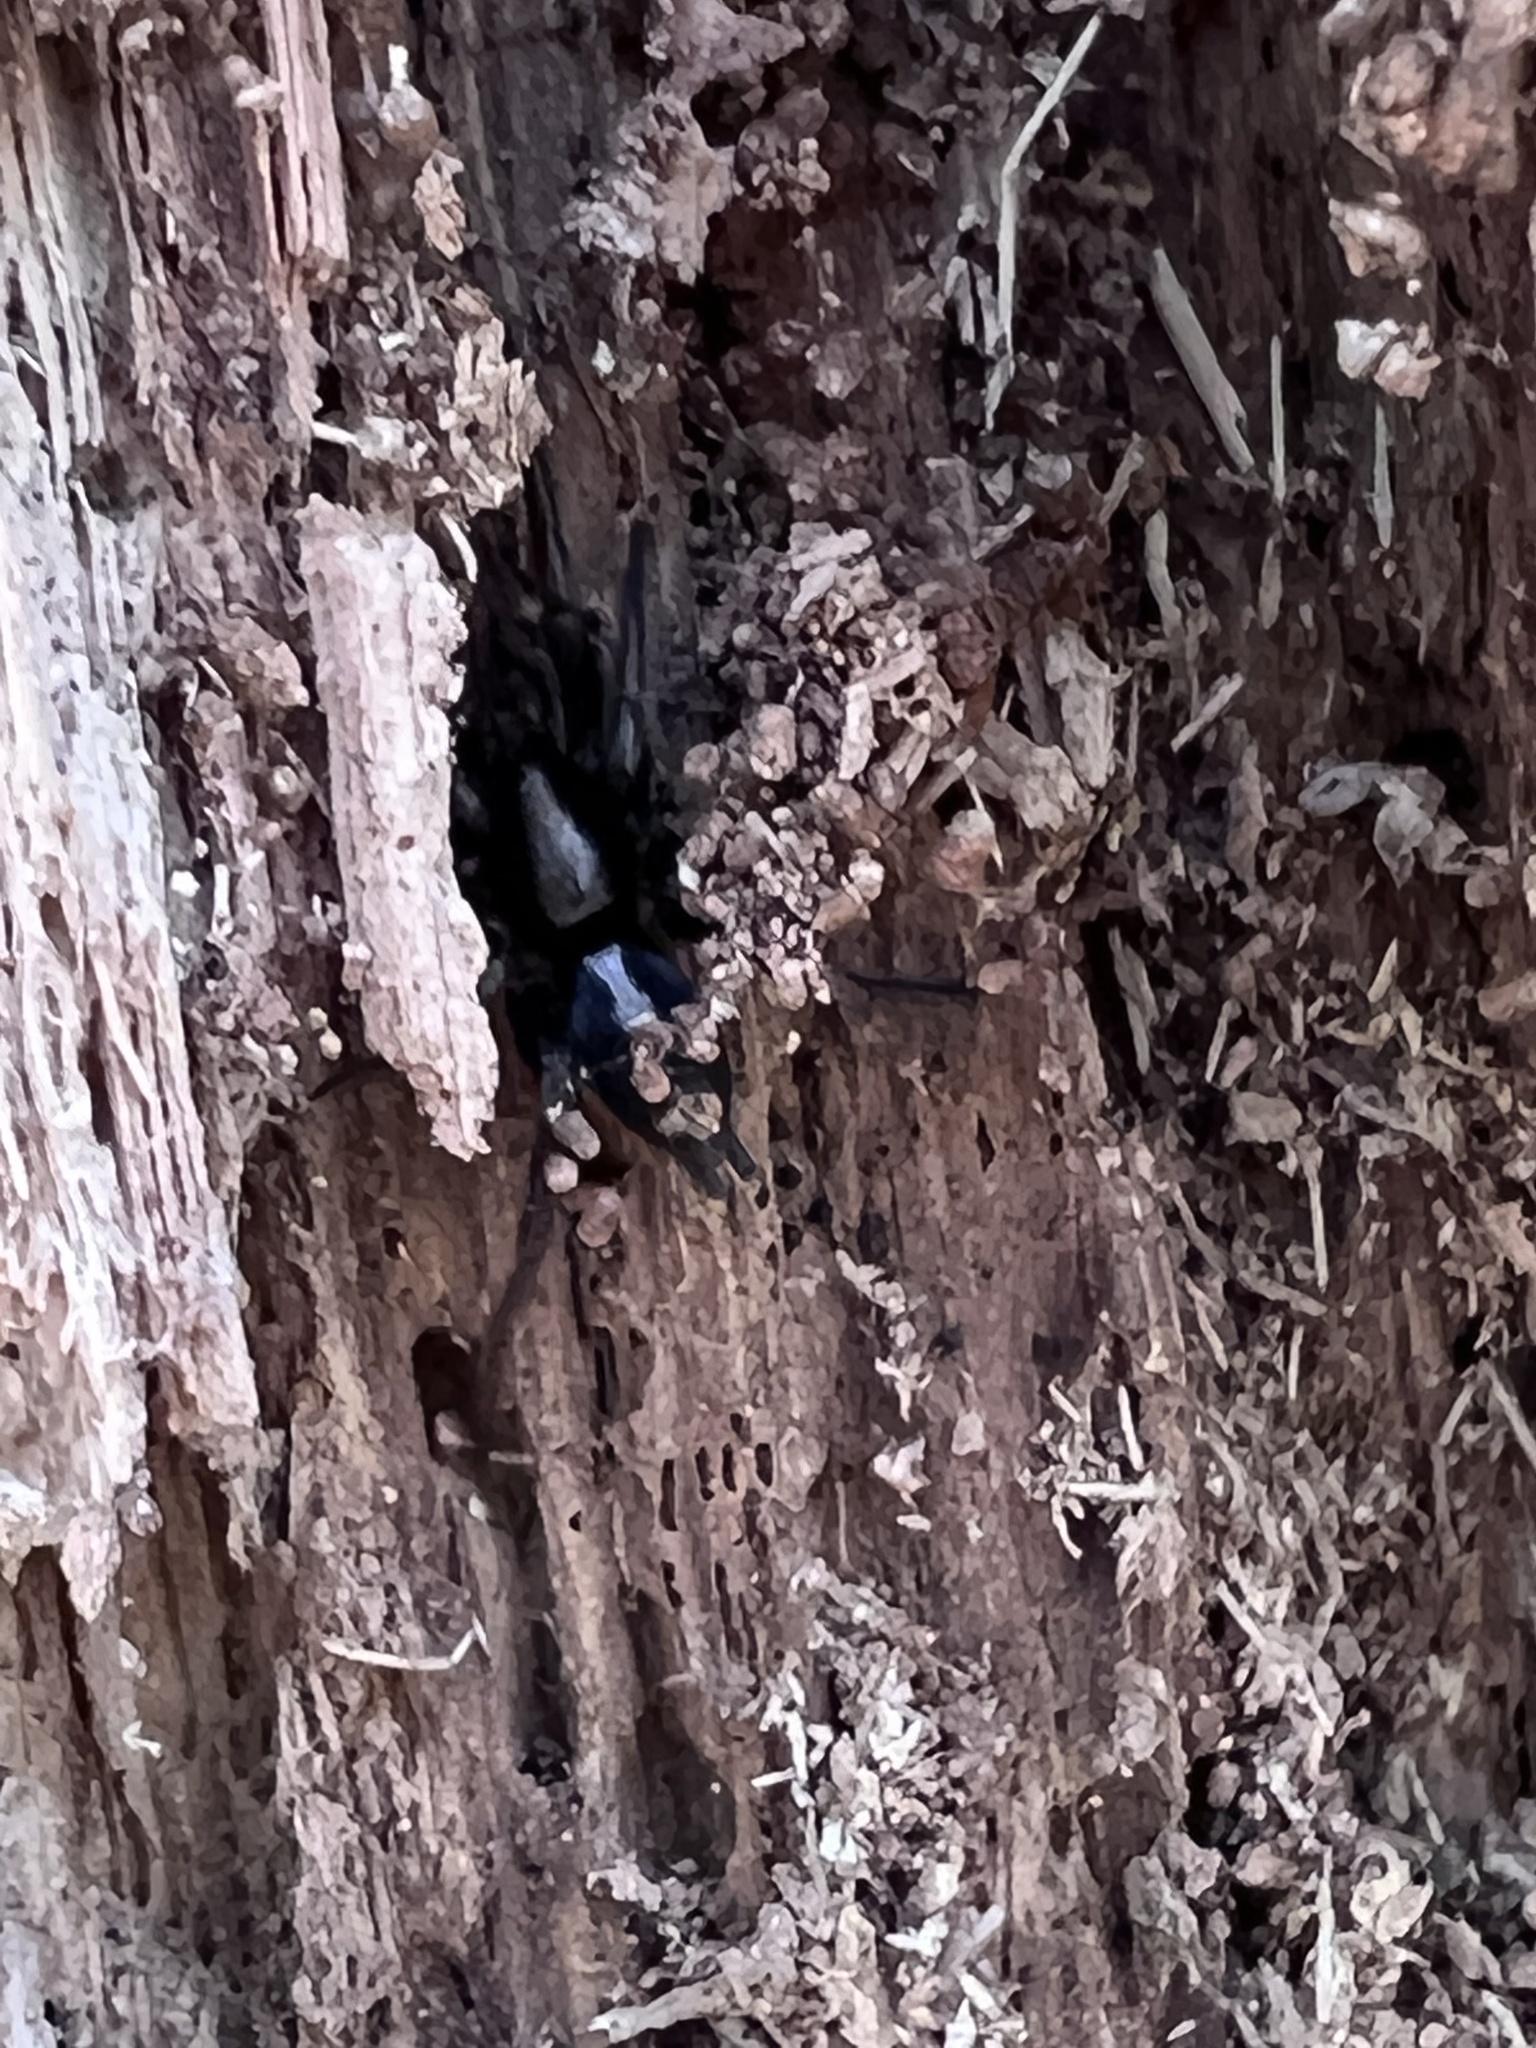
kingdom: Animalia
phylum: Arthropoda
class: Arachnida
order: Araneae
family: Gnaphosidae
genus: Herpyllus
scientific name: Herpyllus ecclesiasticus
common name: Eastern parson spider
